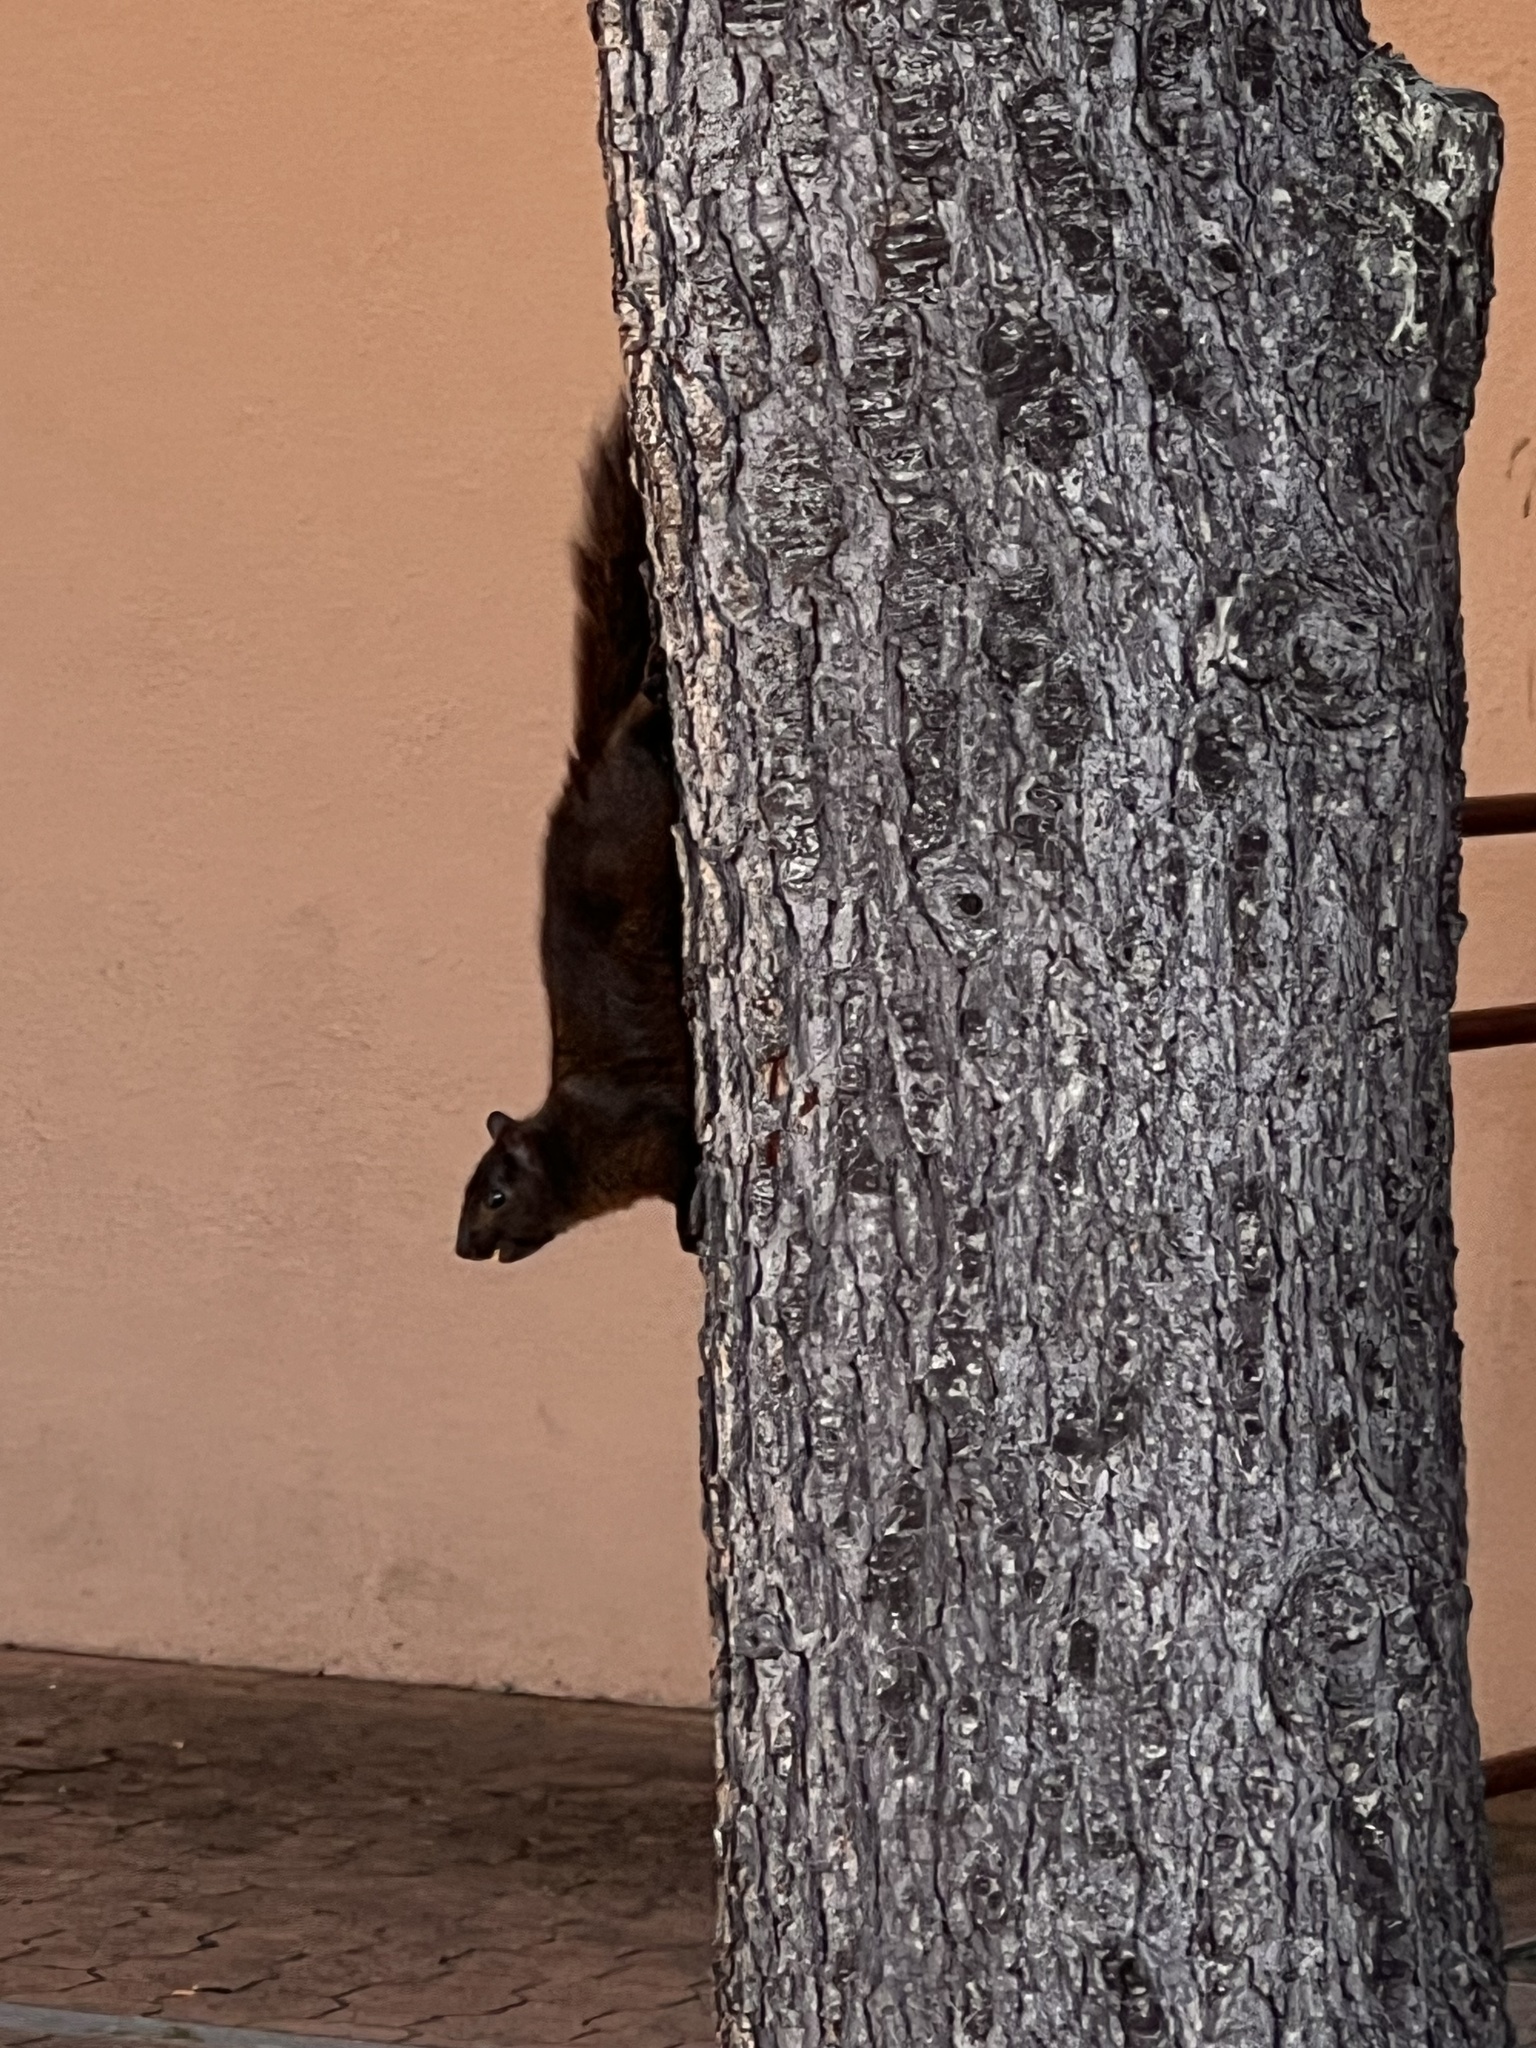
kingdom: Animalia
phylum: Chordata
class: Mammalia
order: Rodentia
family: Sciuridae
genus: Sciurus
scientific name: Sciurus carolinensis
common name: Eastern gray squirrel
